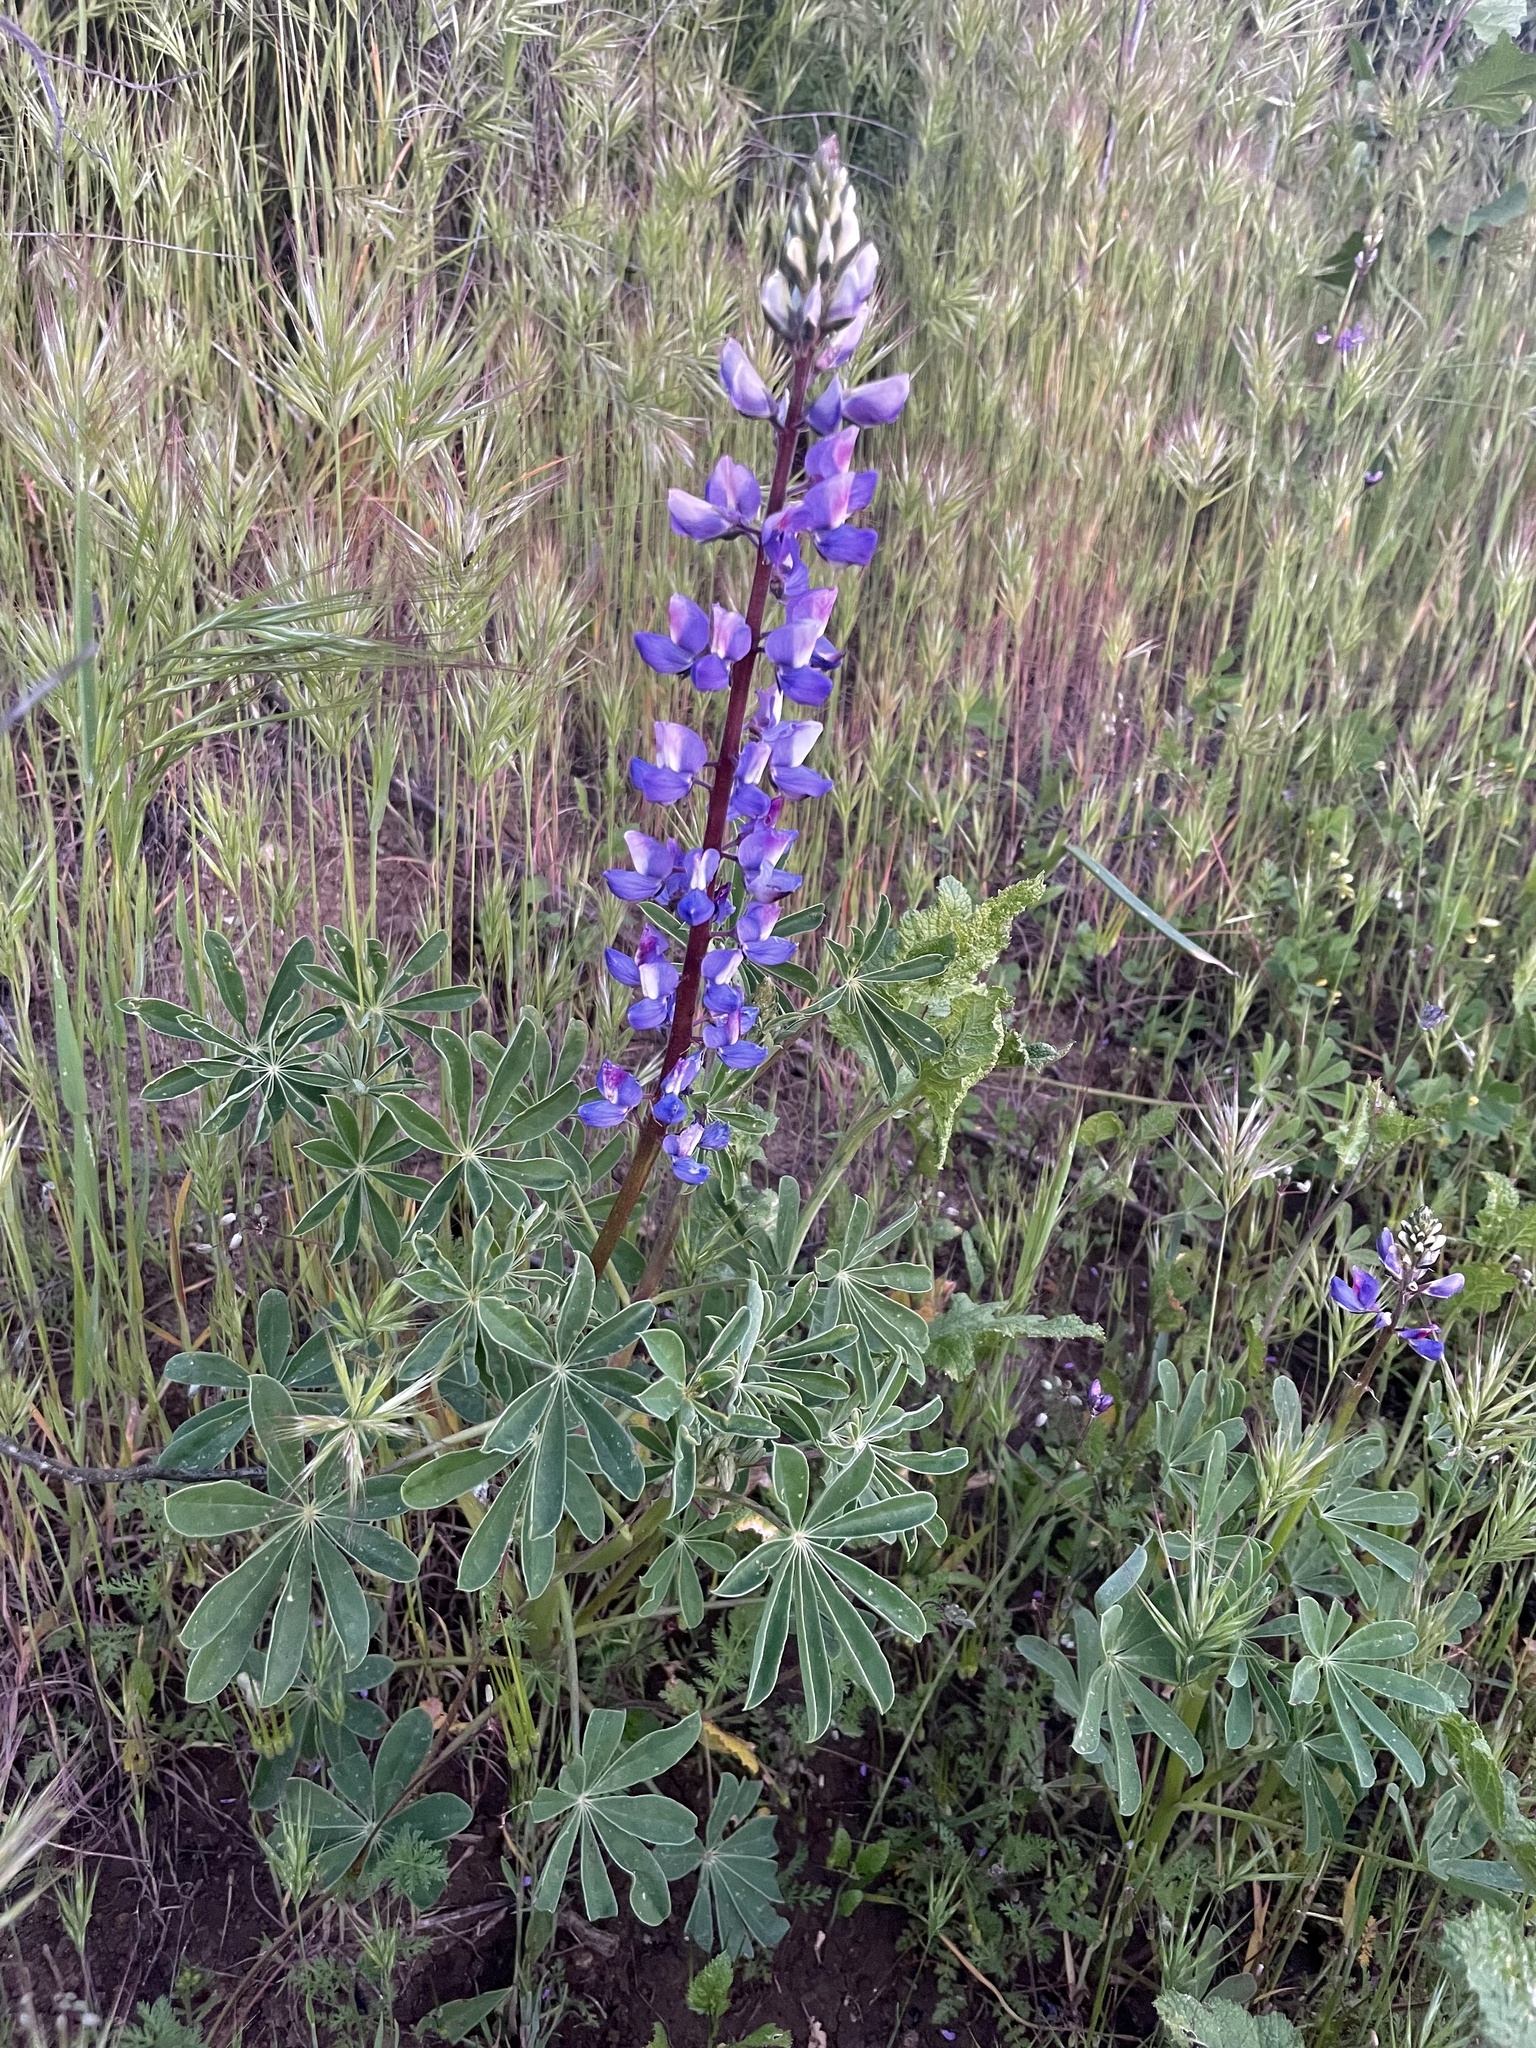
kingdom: Plantae
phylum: Tracheophyta
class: Magnoliopsida
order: Fabales
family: Fabaceae
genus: Lupinus
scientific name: Lupinus succulentus
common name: Arroyo lupine
